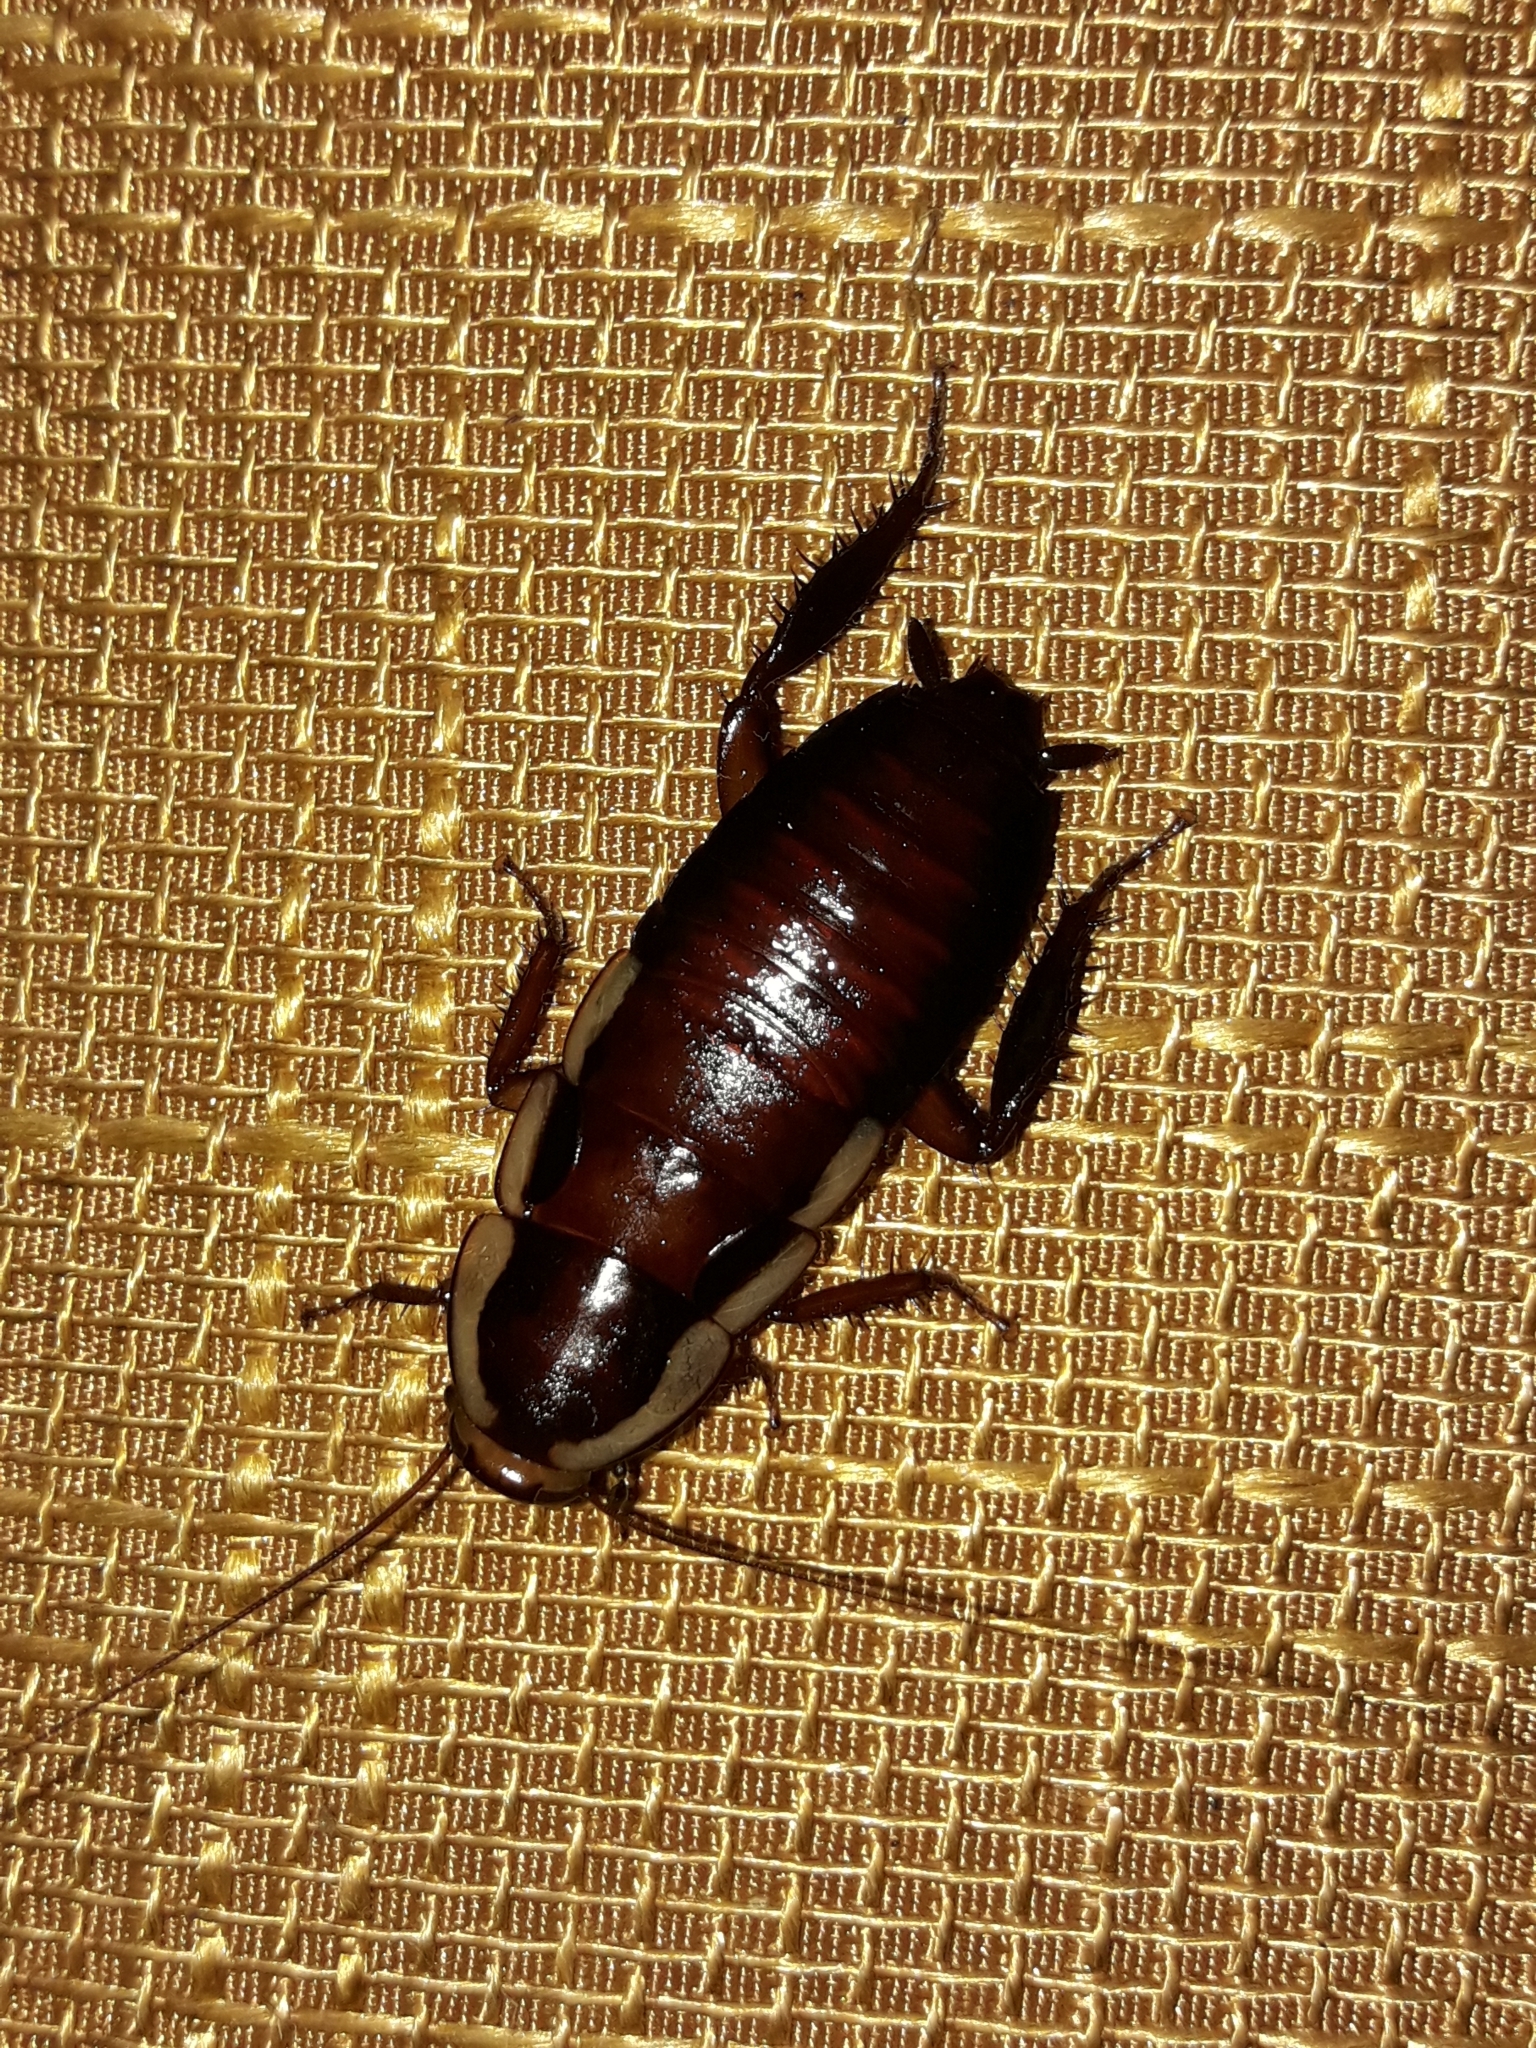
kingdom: Animalia
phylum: Arthropoda
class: Insecta
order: Blattodea
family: Blattidae
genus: Drymaplaneta
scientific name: Drymaplaneta semivitta
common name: Gisborne cockroach
